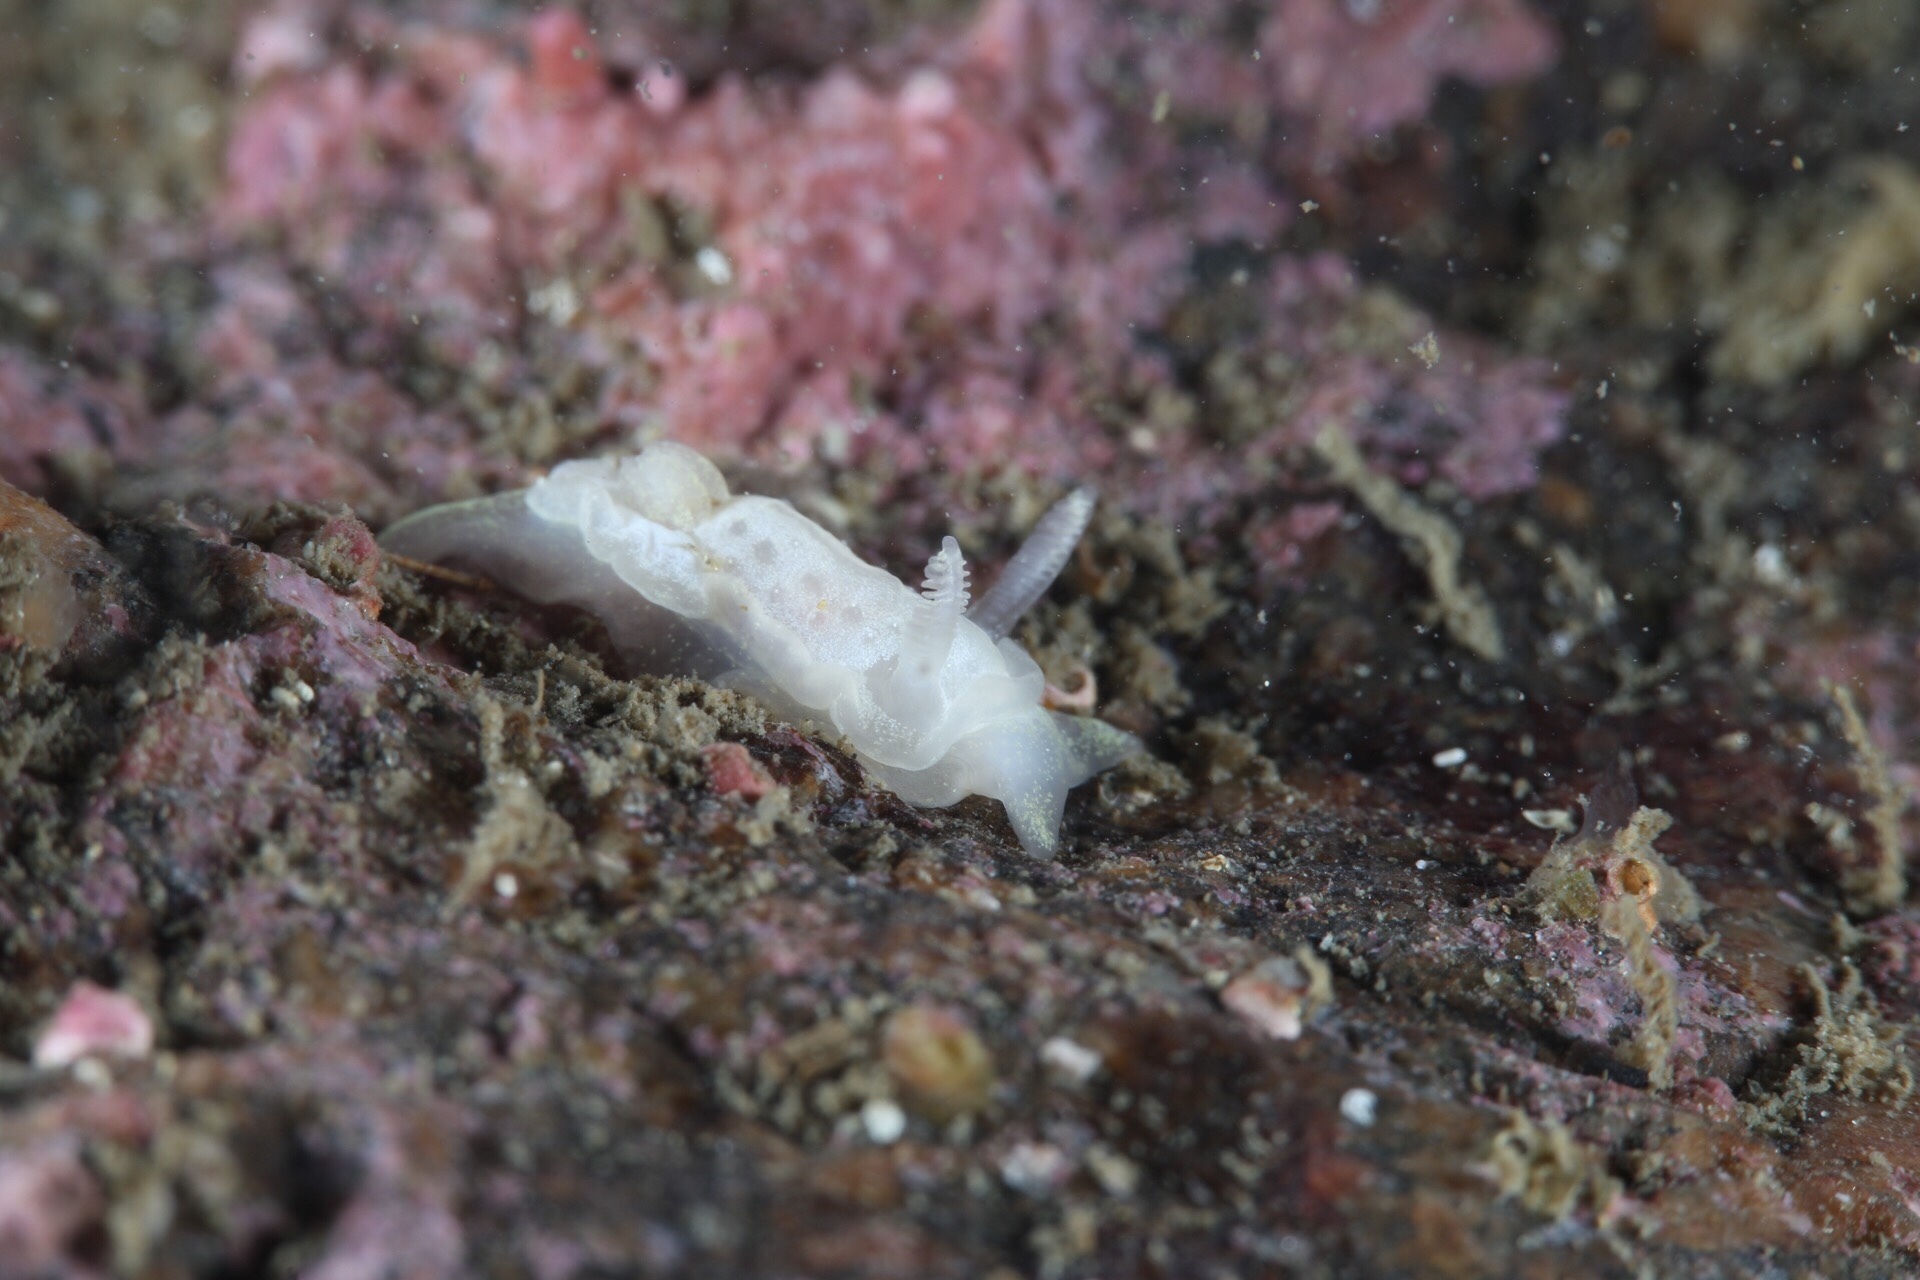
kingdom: Animalia
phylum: Mollusca
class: Gastropoda
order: Nudibranchia
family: Goniodorididae
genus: Okenia
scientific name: Okenia
